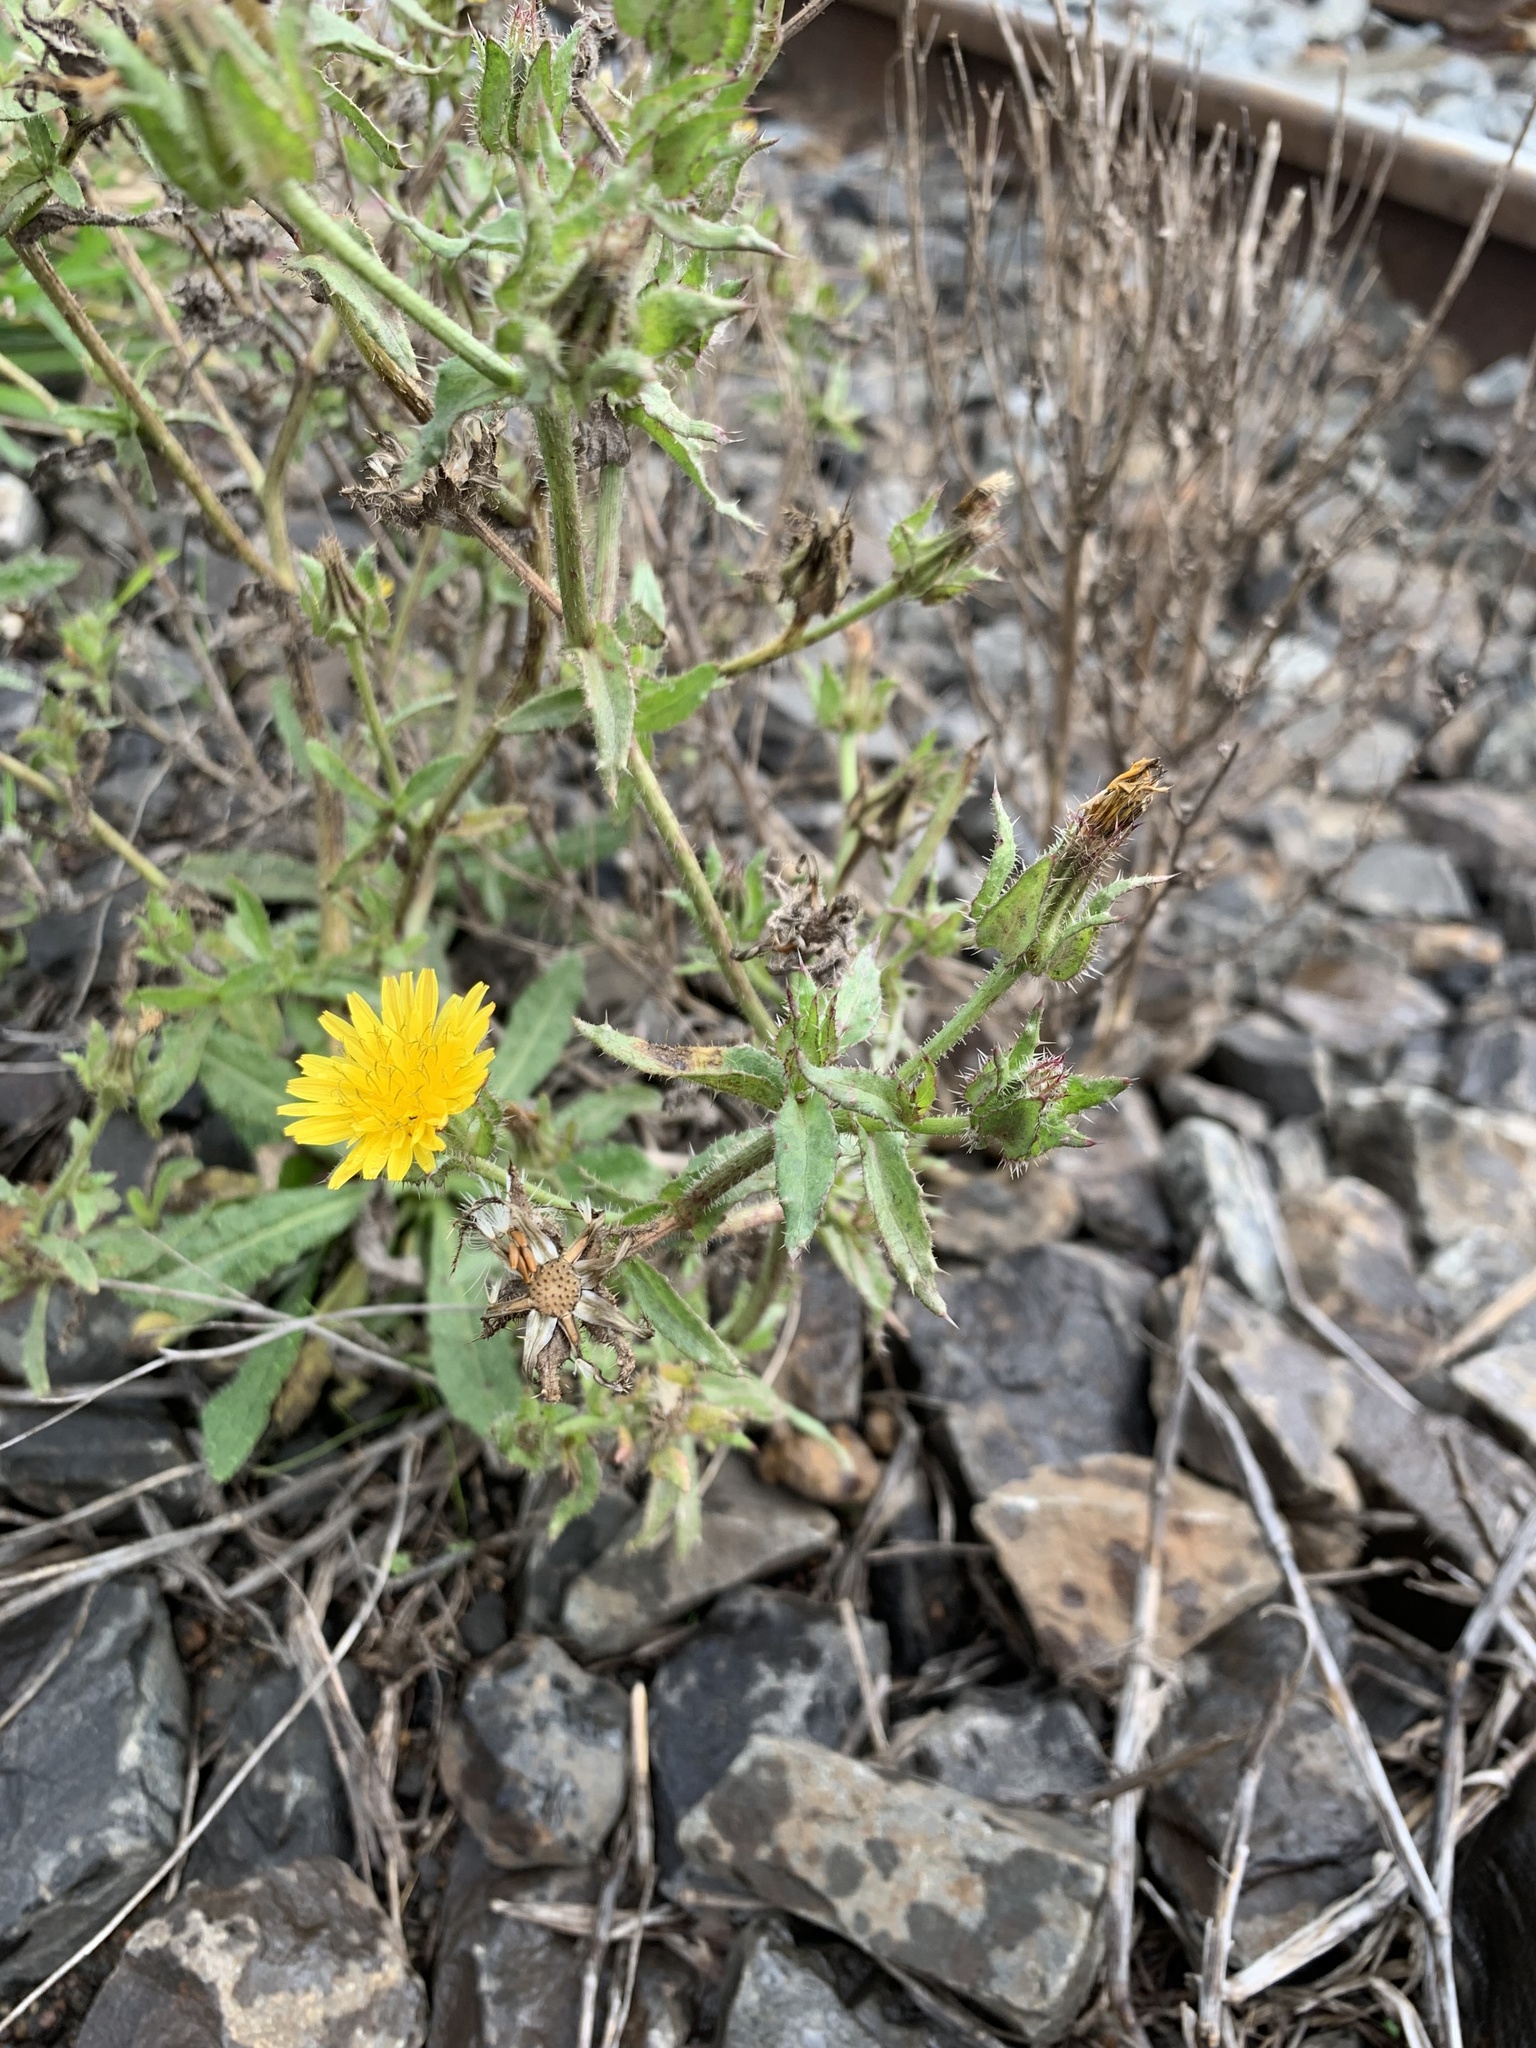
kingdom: Plantae
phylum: Tracheophyta
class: Magnoliopsida
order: Asterales
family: Asteraceae
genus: Helminthotheca
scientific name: Helminthotheca echioides
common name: Ox-tongue
